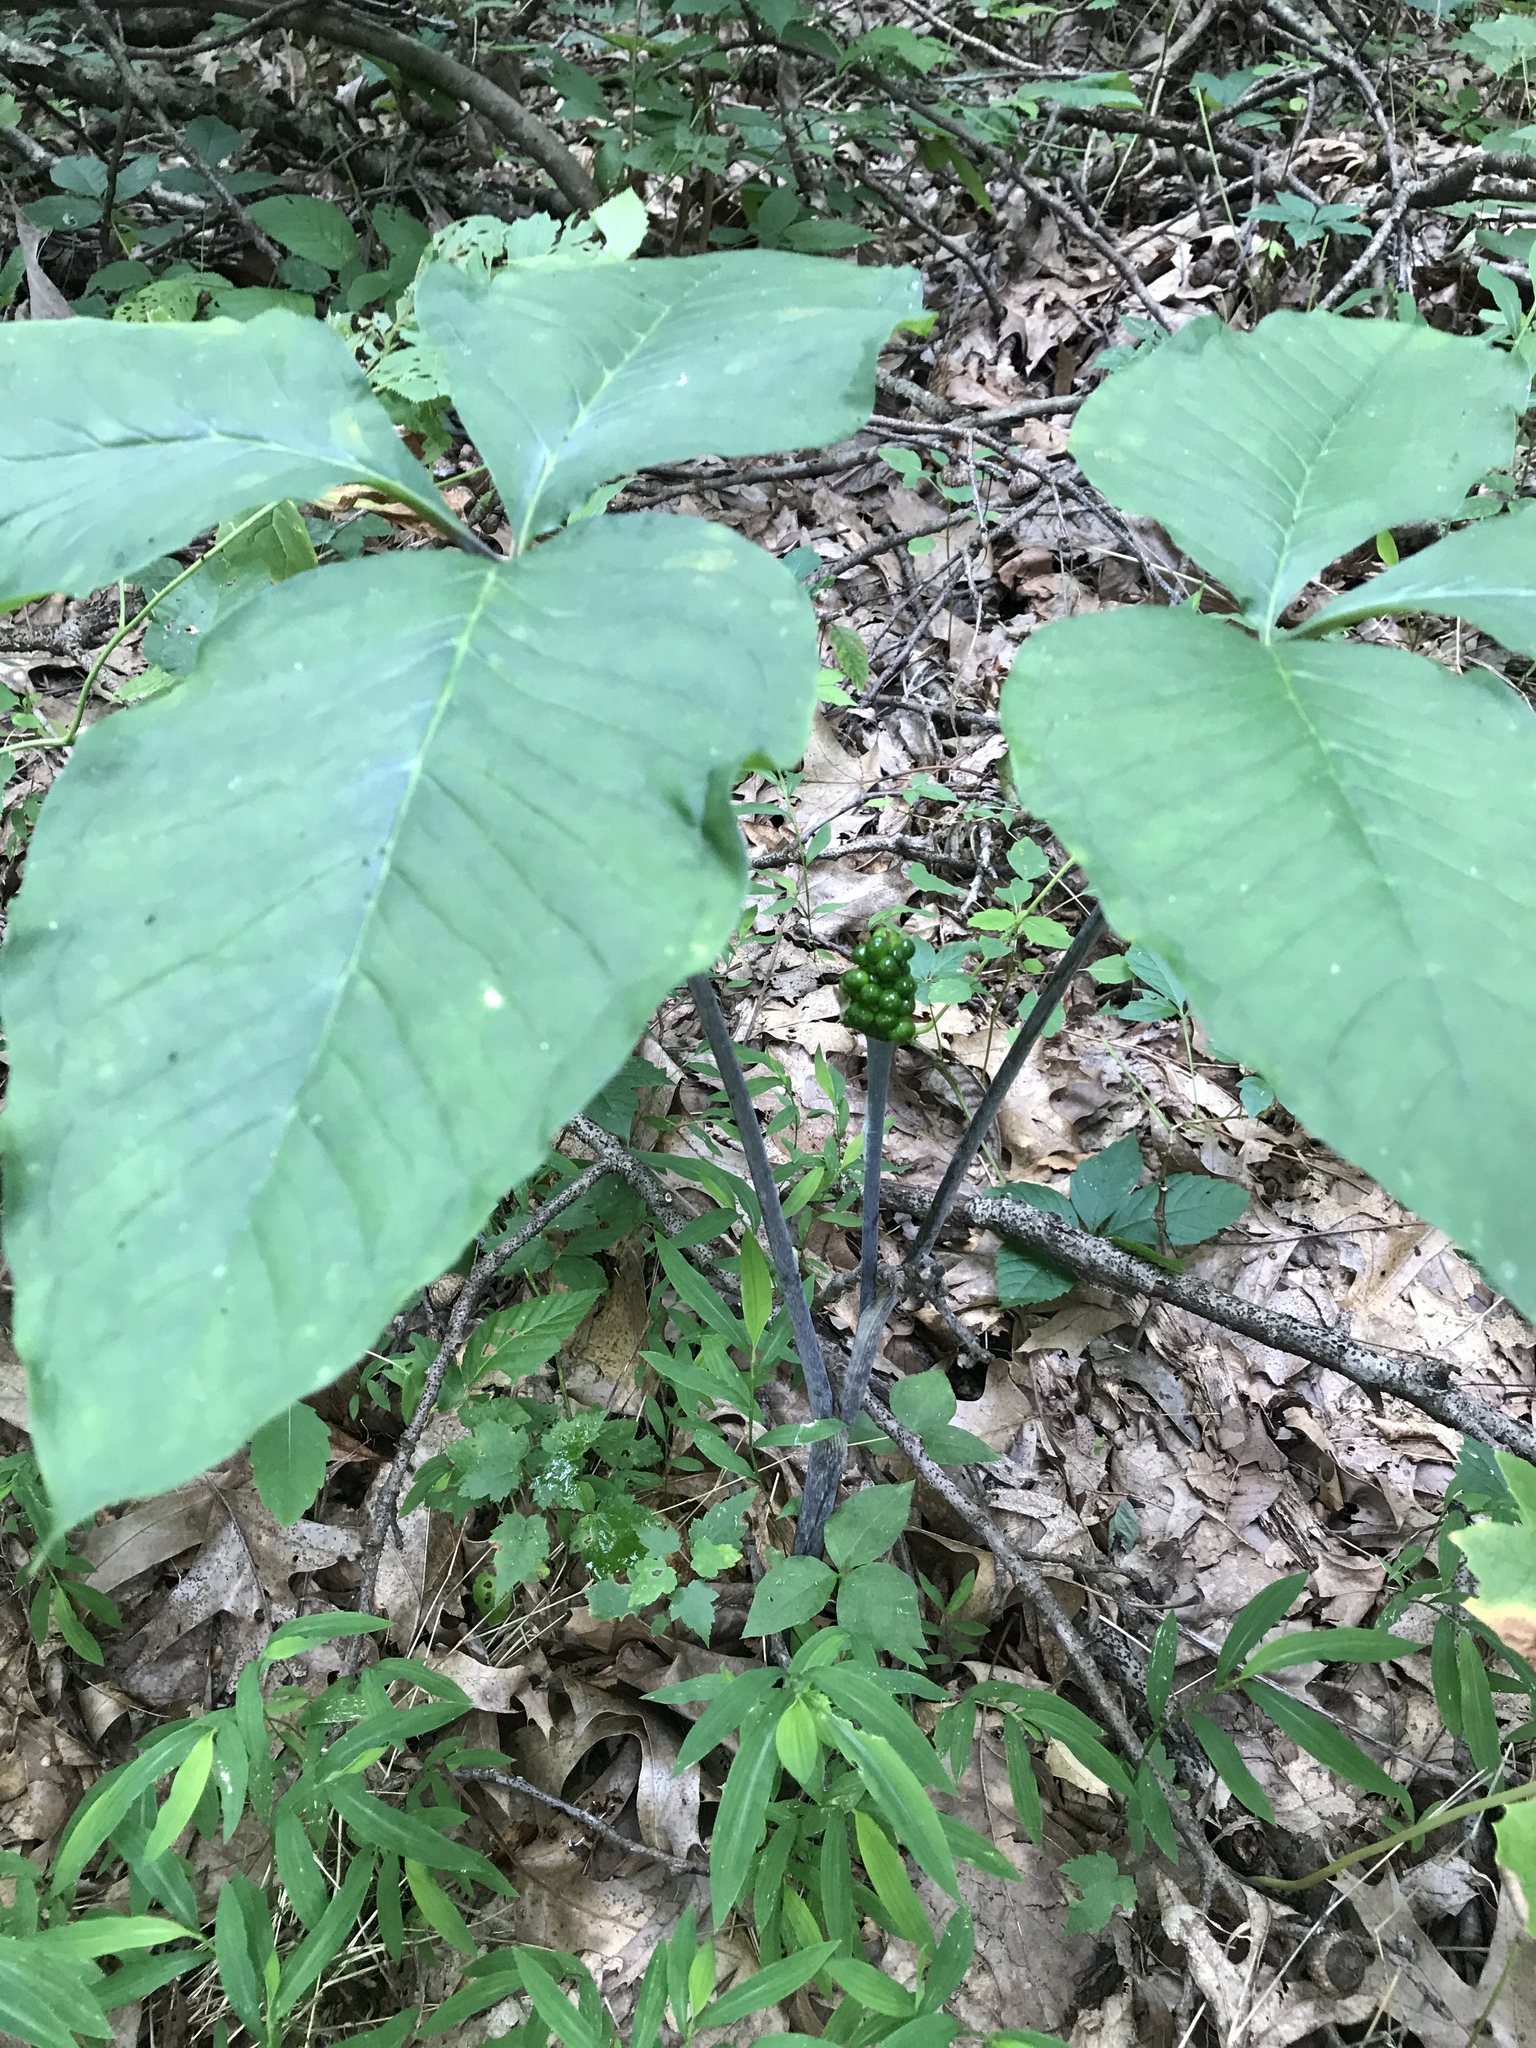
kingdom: Plantae
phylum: Tracheophyta
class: Liliopsida
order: Alismatales
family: Araceae
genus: Arisaema
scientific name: Arisaema triphyllum
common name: Jack-in-the-pulpit
